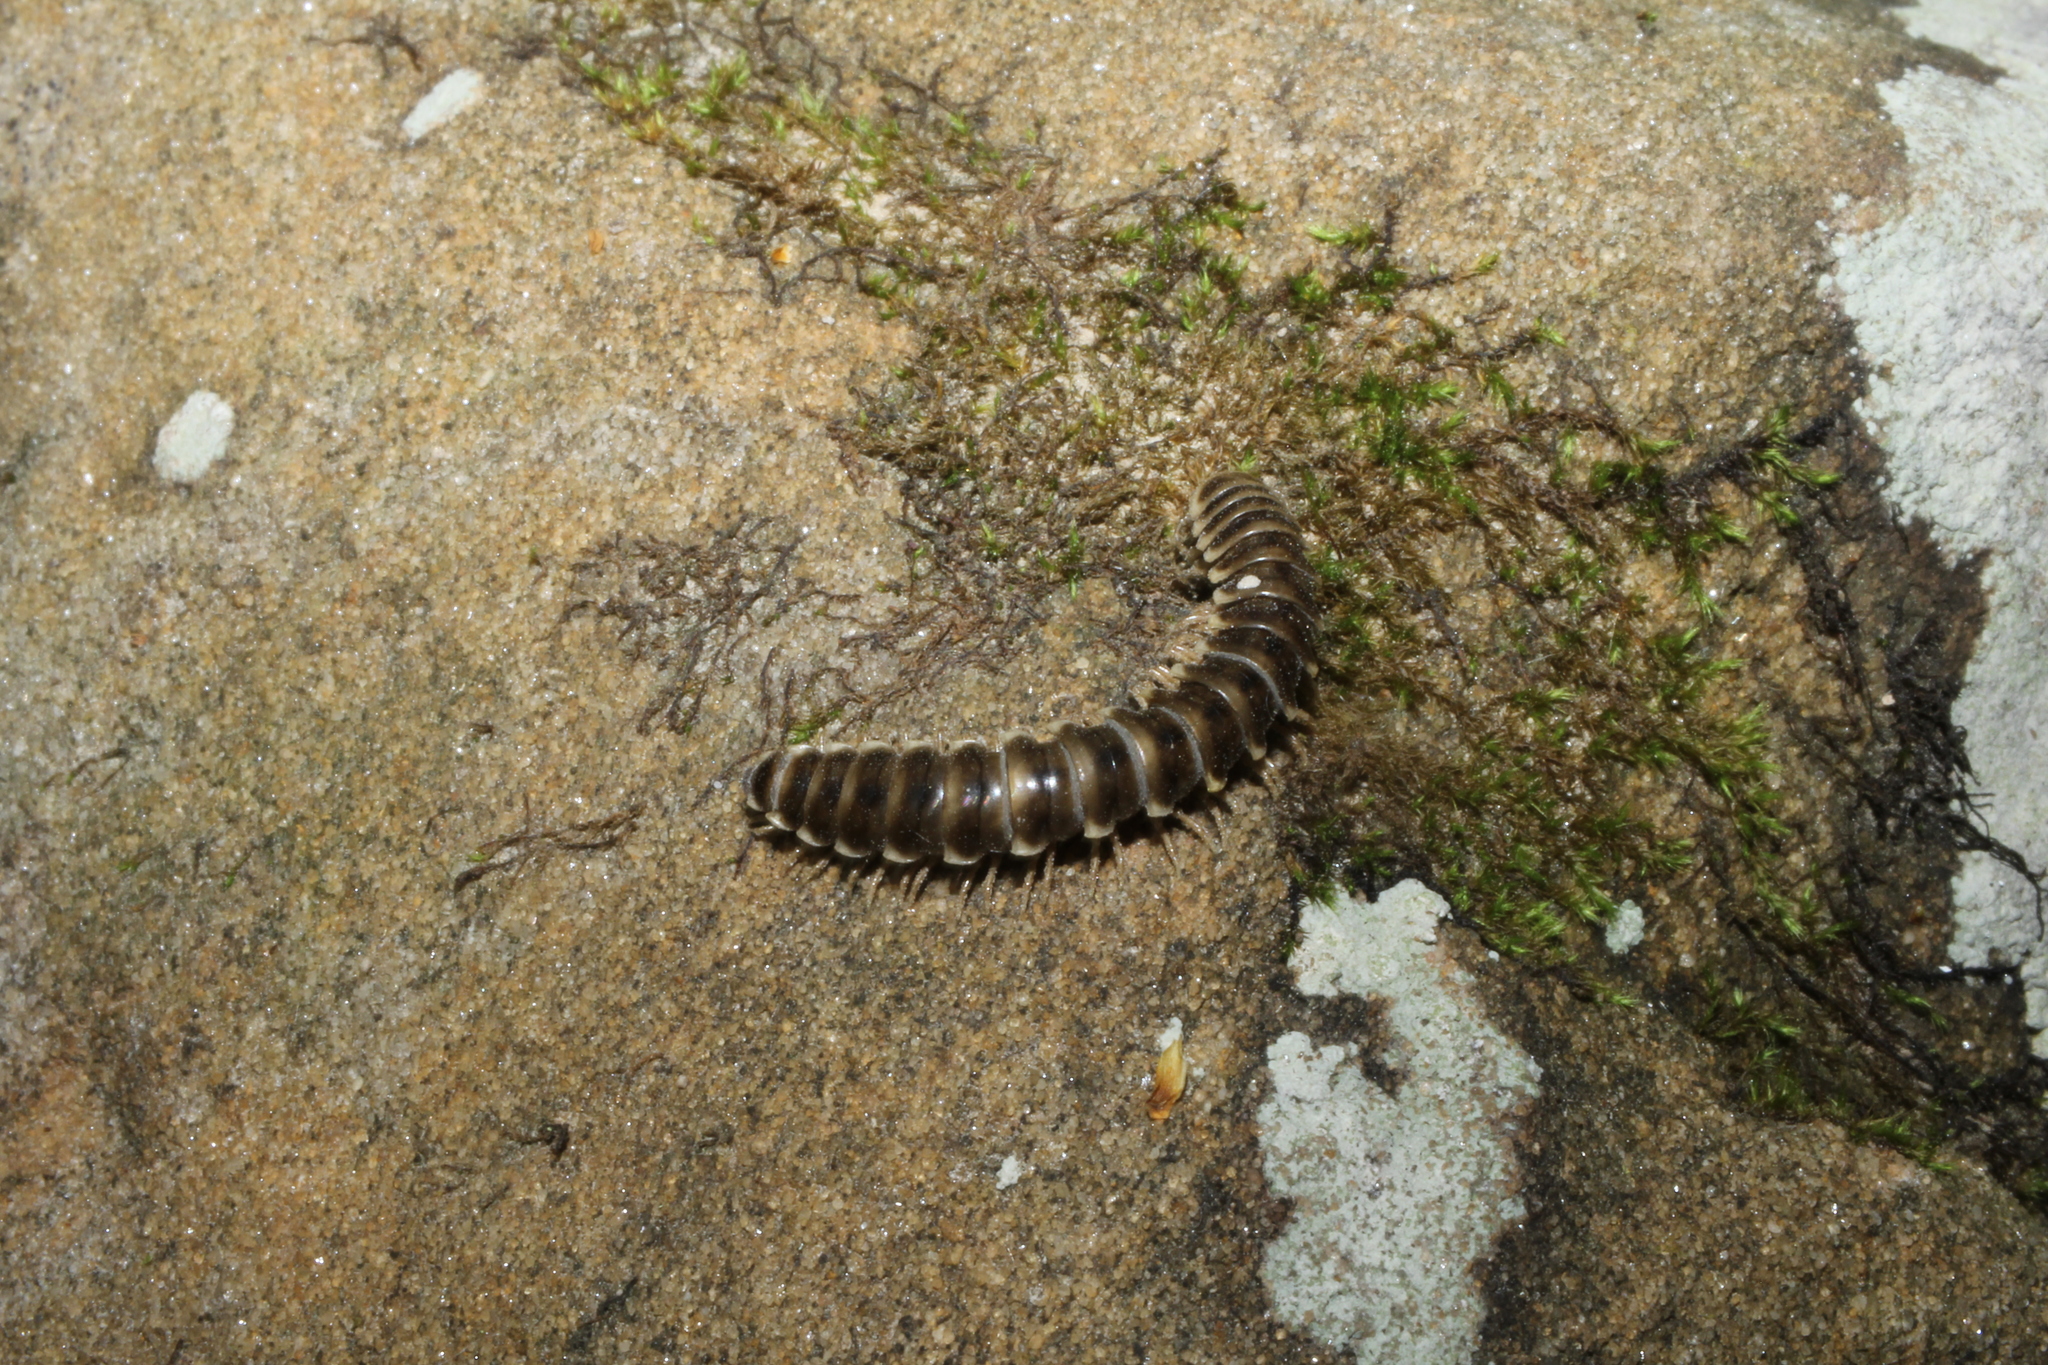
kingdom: Animalia
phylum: Arthropoda
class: Diplopoda
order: Polydesmida
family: Xystodesmidae
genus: Nannaria
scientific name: Nannaria terricola
